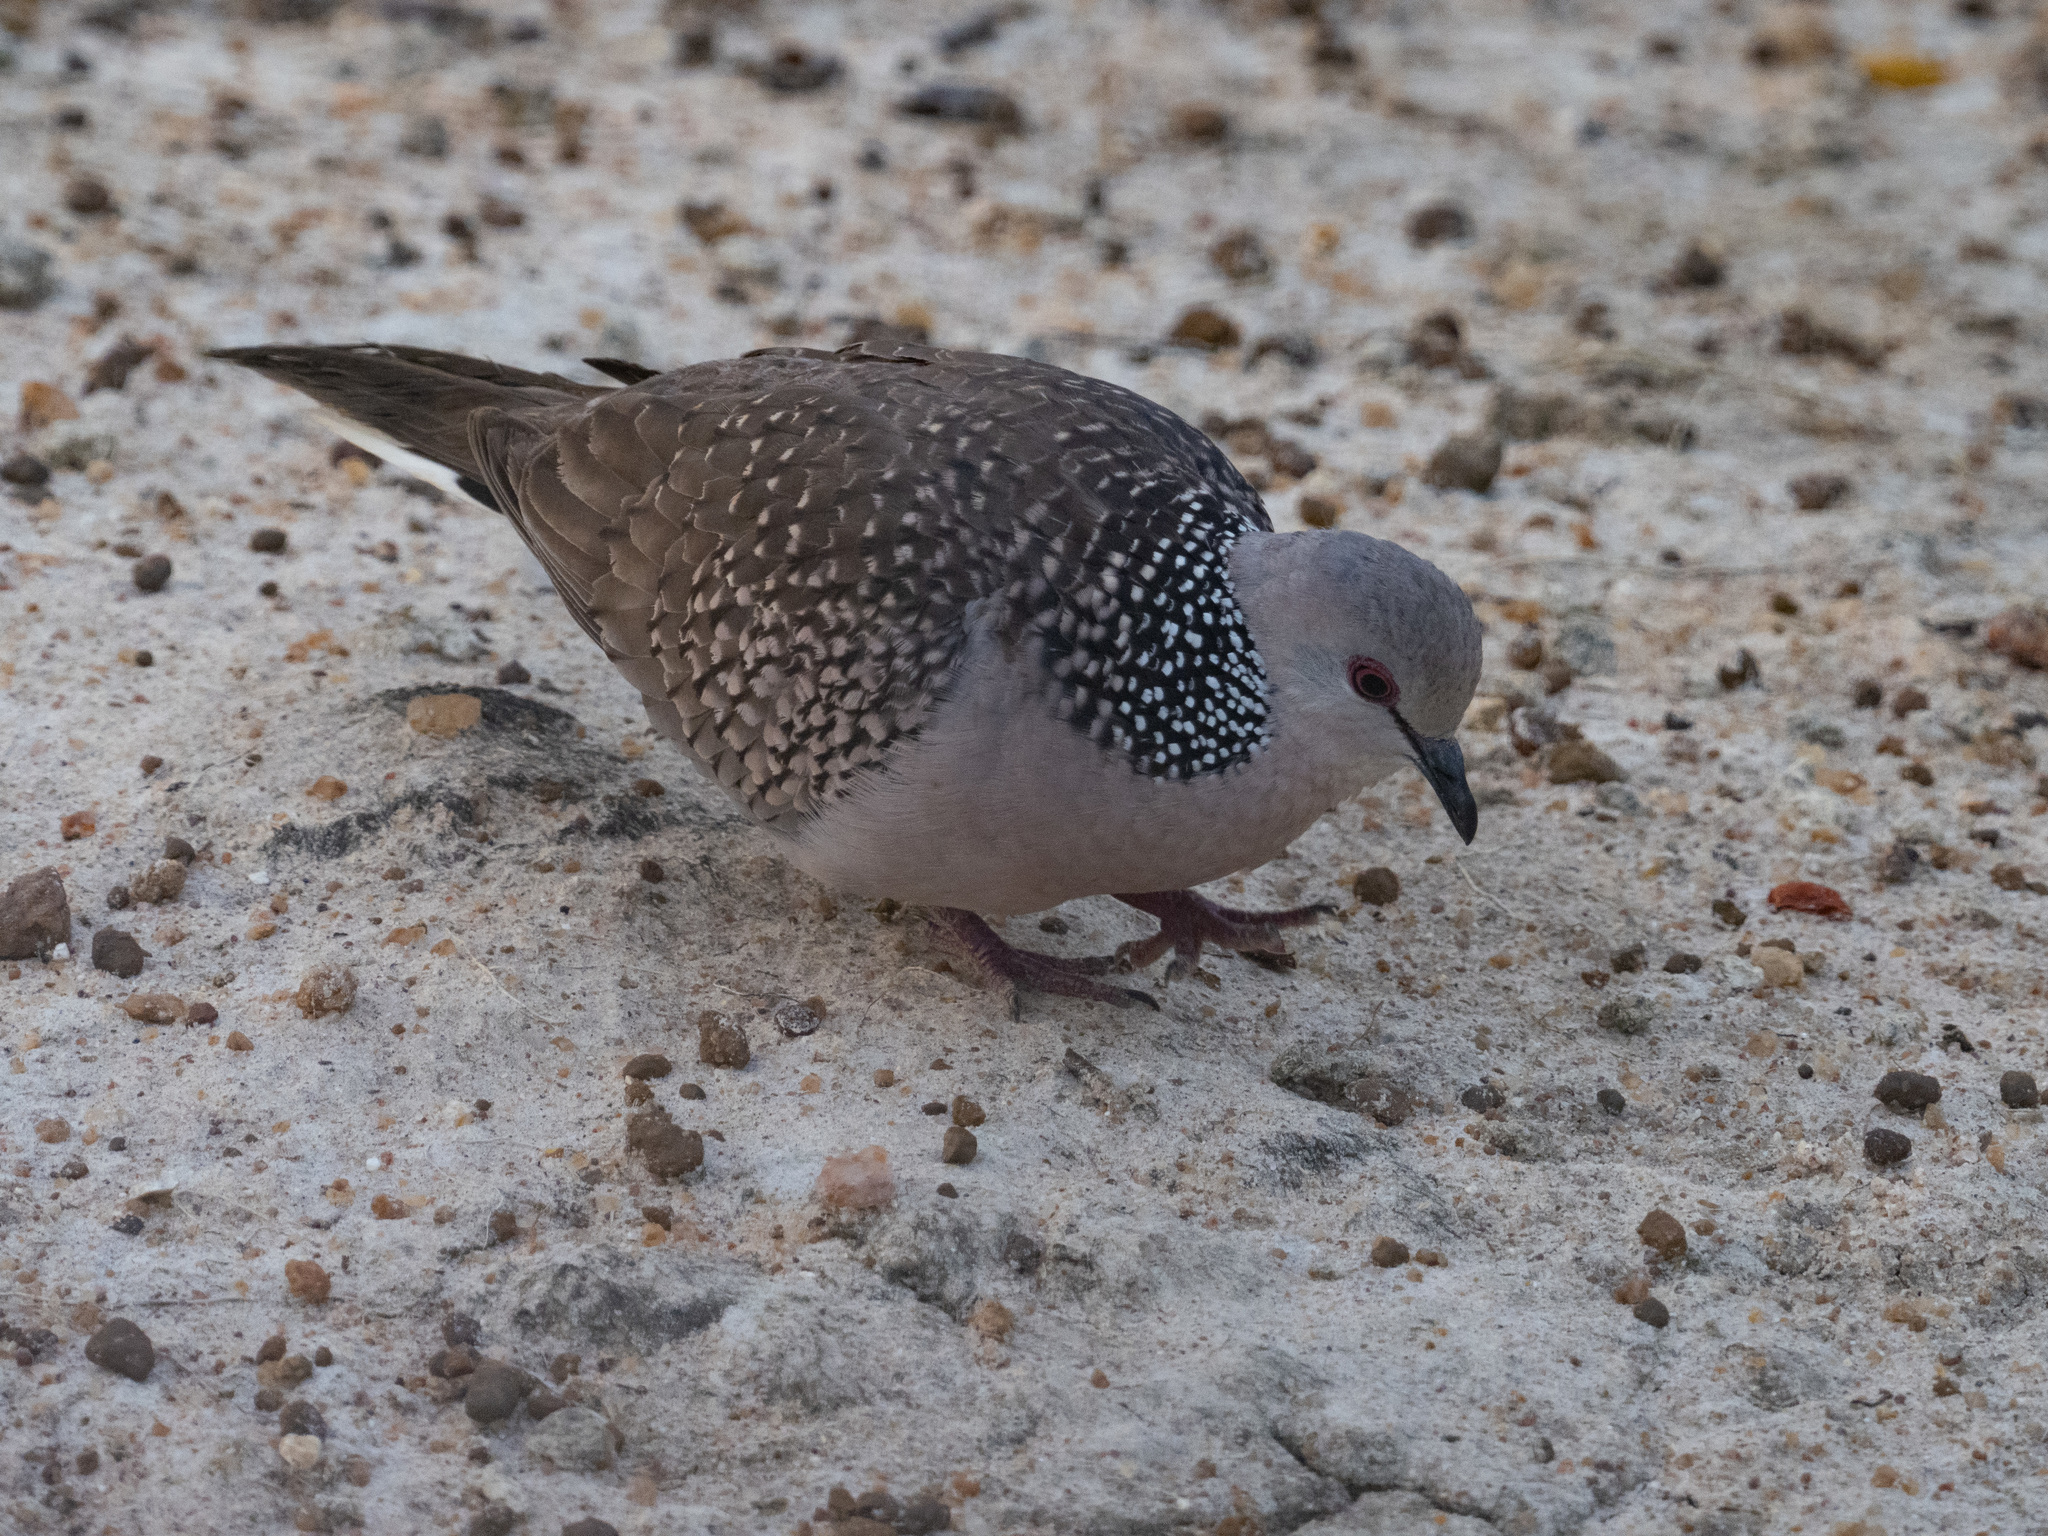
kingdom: Animalia
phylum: Chordata
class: Aves
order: Columbiformes
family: Columbidae
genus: Spilopelia
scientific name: Spilopelia chinensis
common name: Spotted dove
